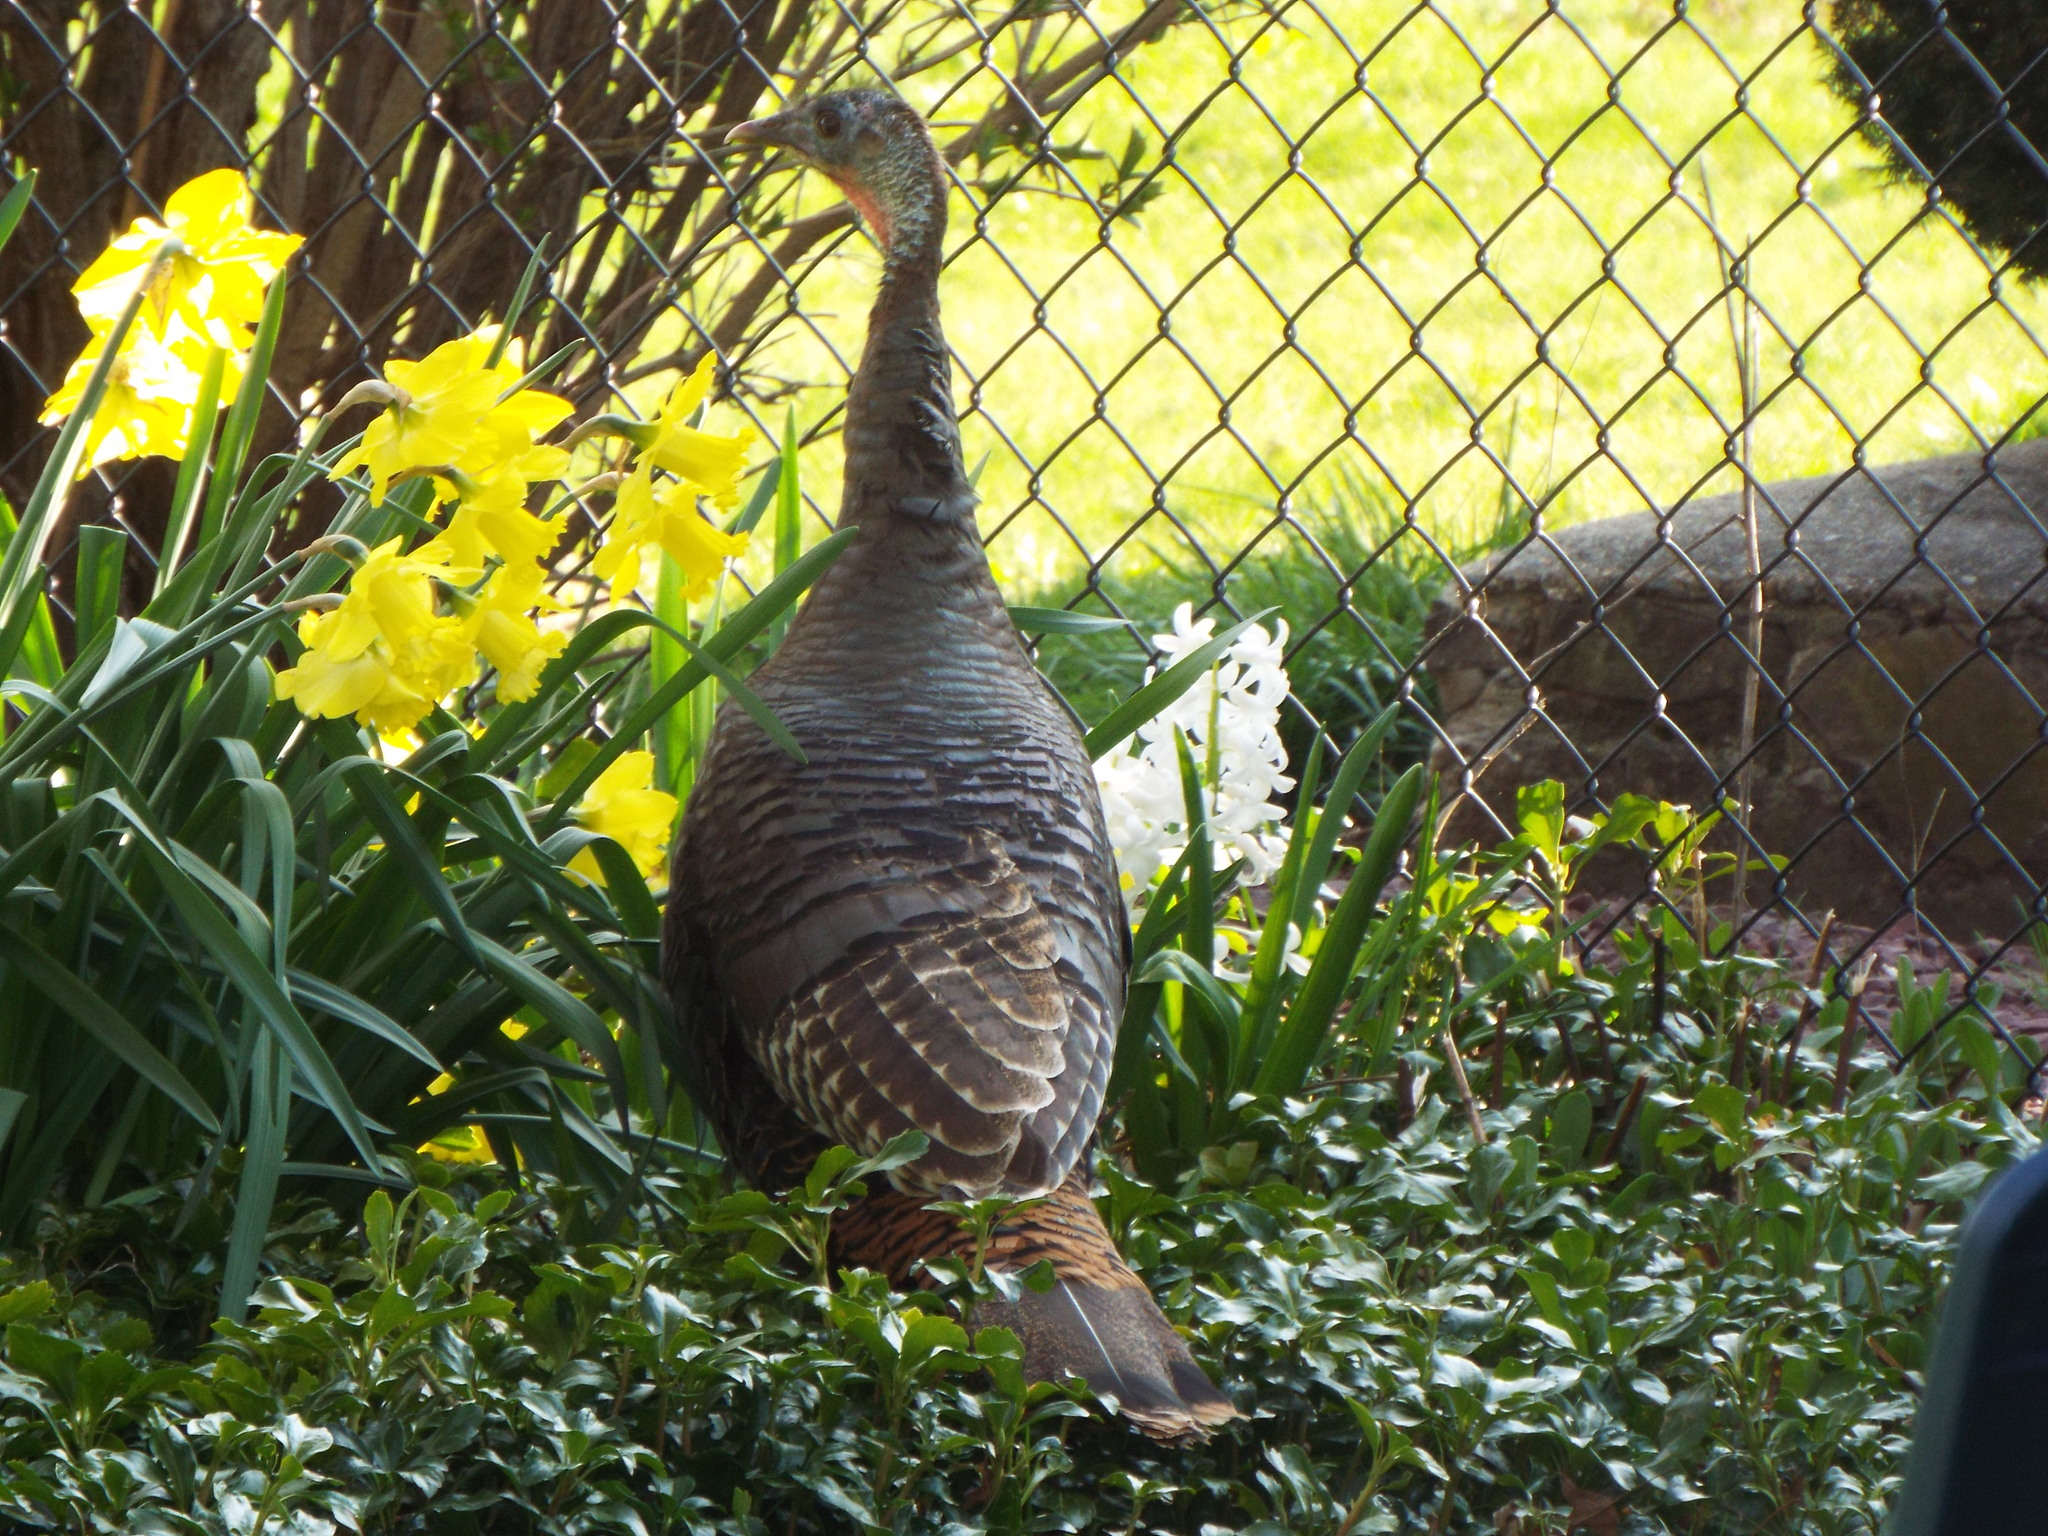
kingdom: Animalia
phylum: Chordata
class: Aves
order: Galliformes
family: Phasianidae
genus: Meleagris
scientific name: Meleagris gallopavo
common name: Wild turkey
